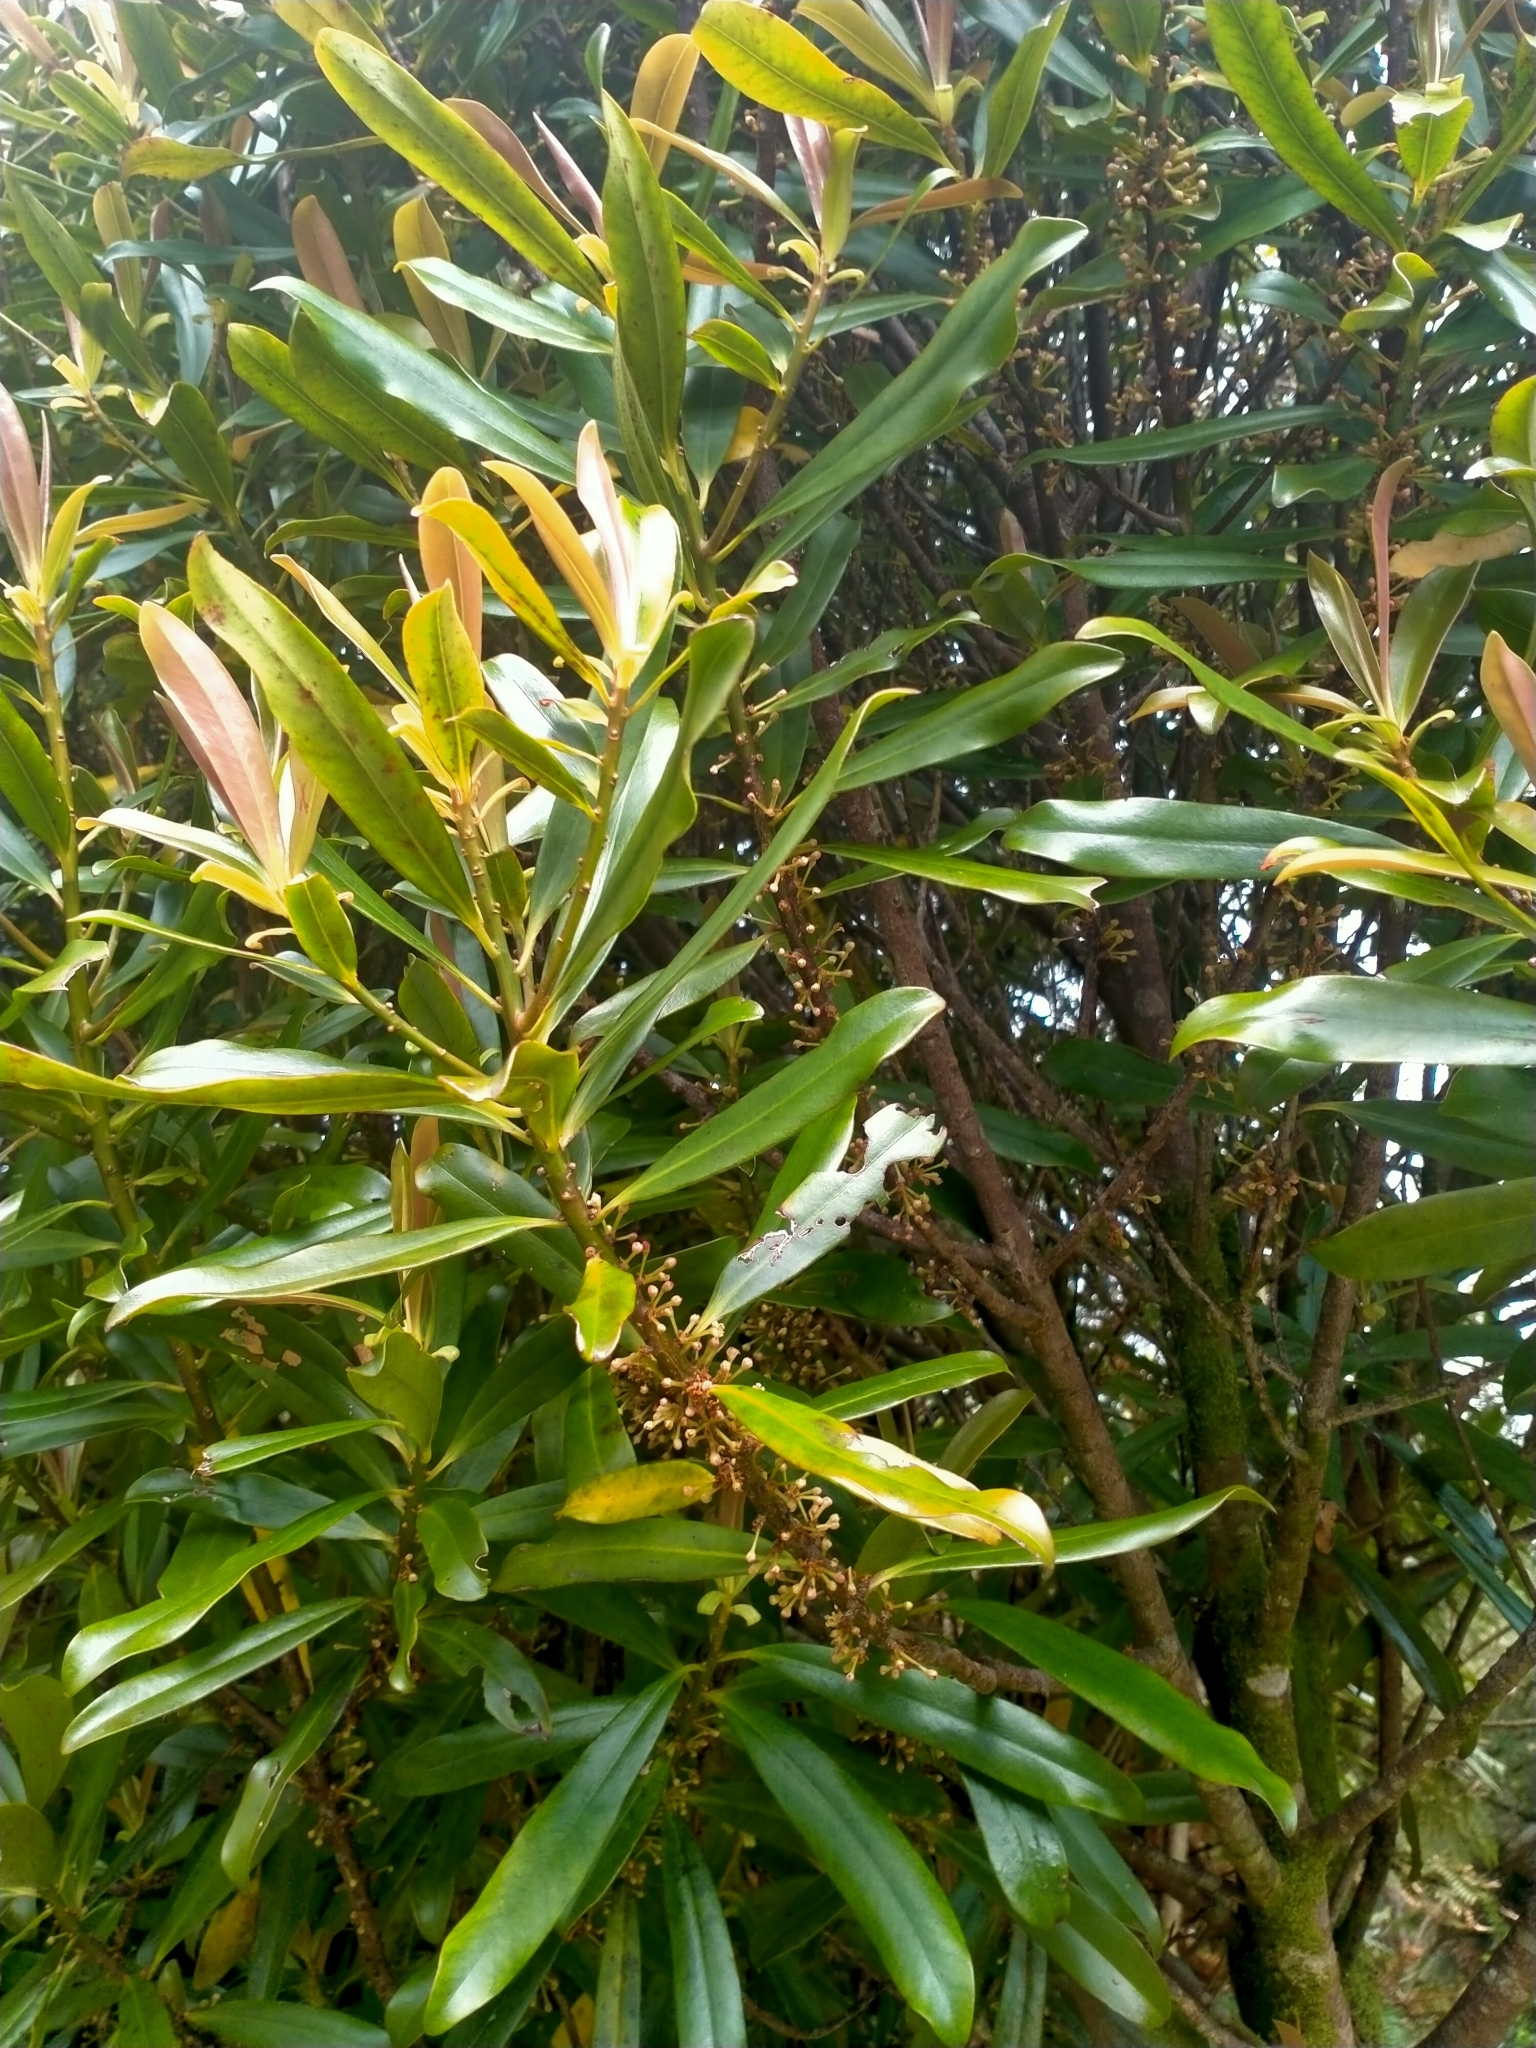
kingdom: Plantae
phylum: Tracheophyta
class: Magnoliopsida
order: Ericales
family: Primulaceae
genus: Myrsine
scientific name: Myrsine salicina
